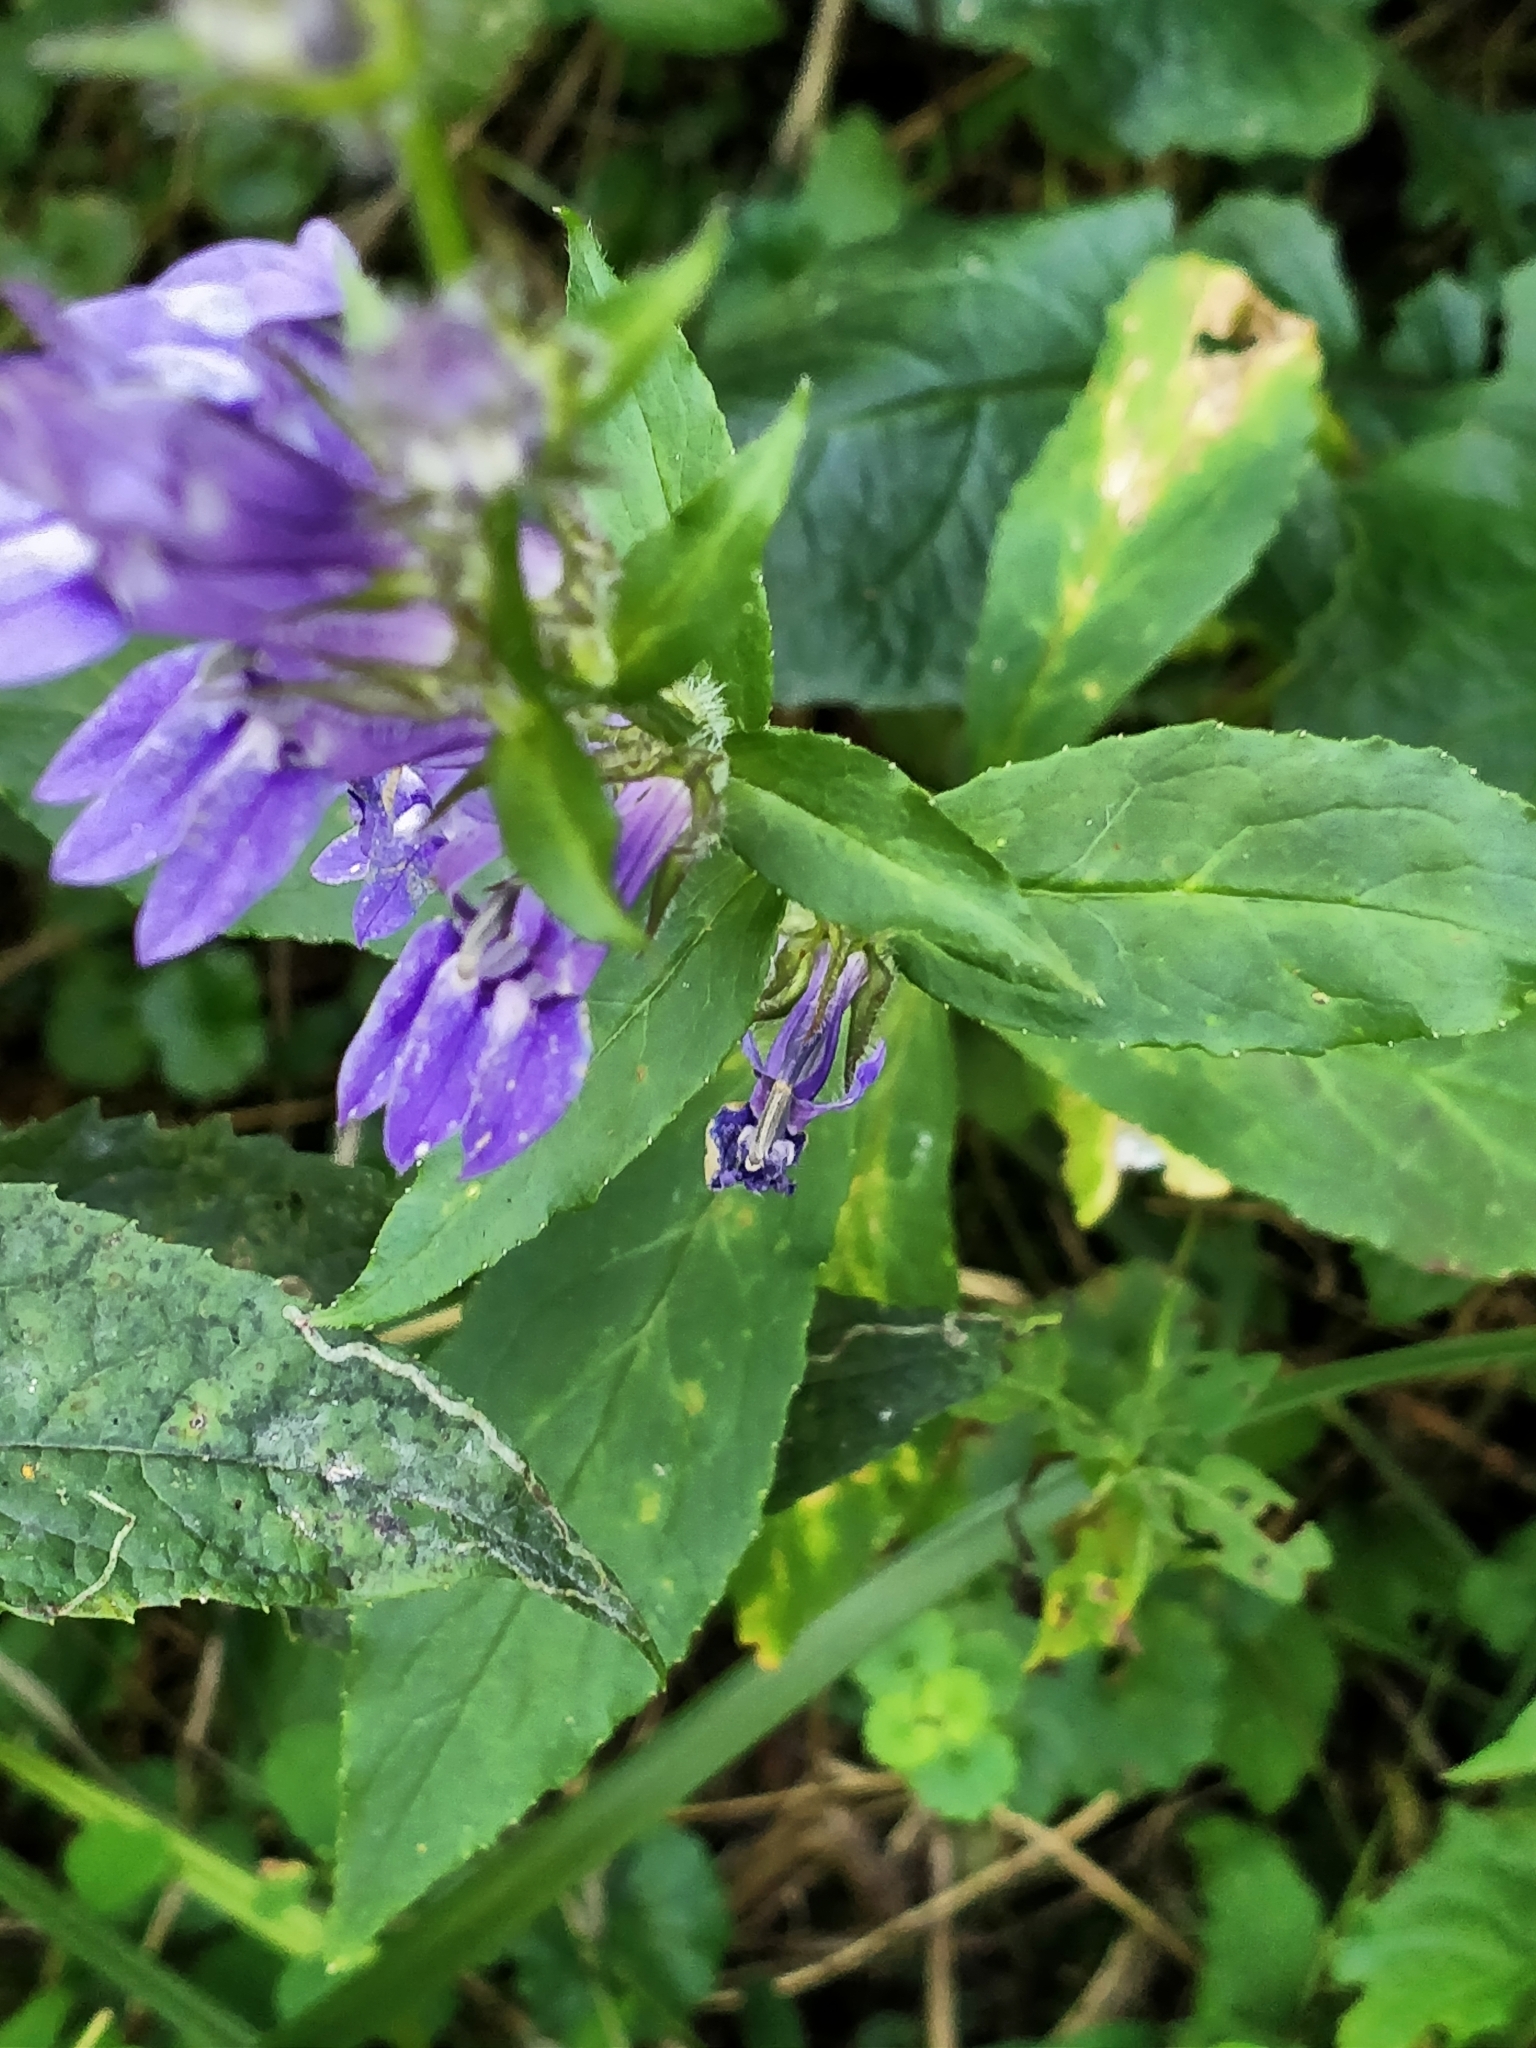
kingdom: Plantae
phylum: Tracheophyta
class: Magnoliopsida
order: Asterales
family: Campanulaceae
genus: Lobelia
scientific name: Lobelia siphilitica
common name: Great lobelia
